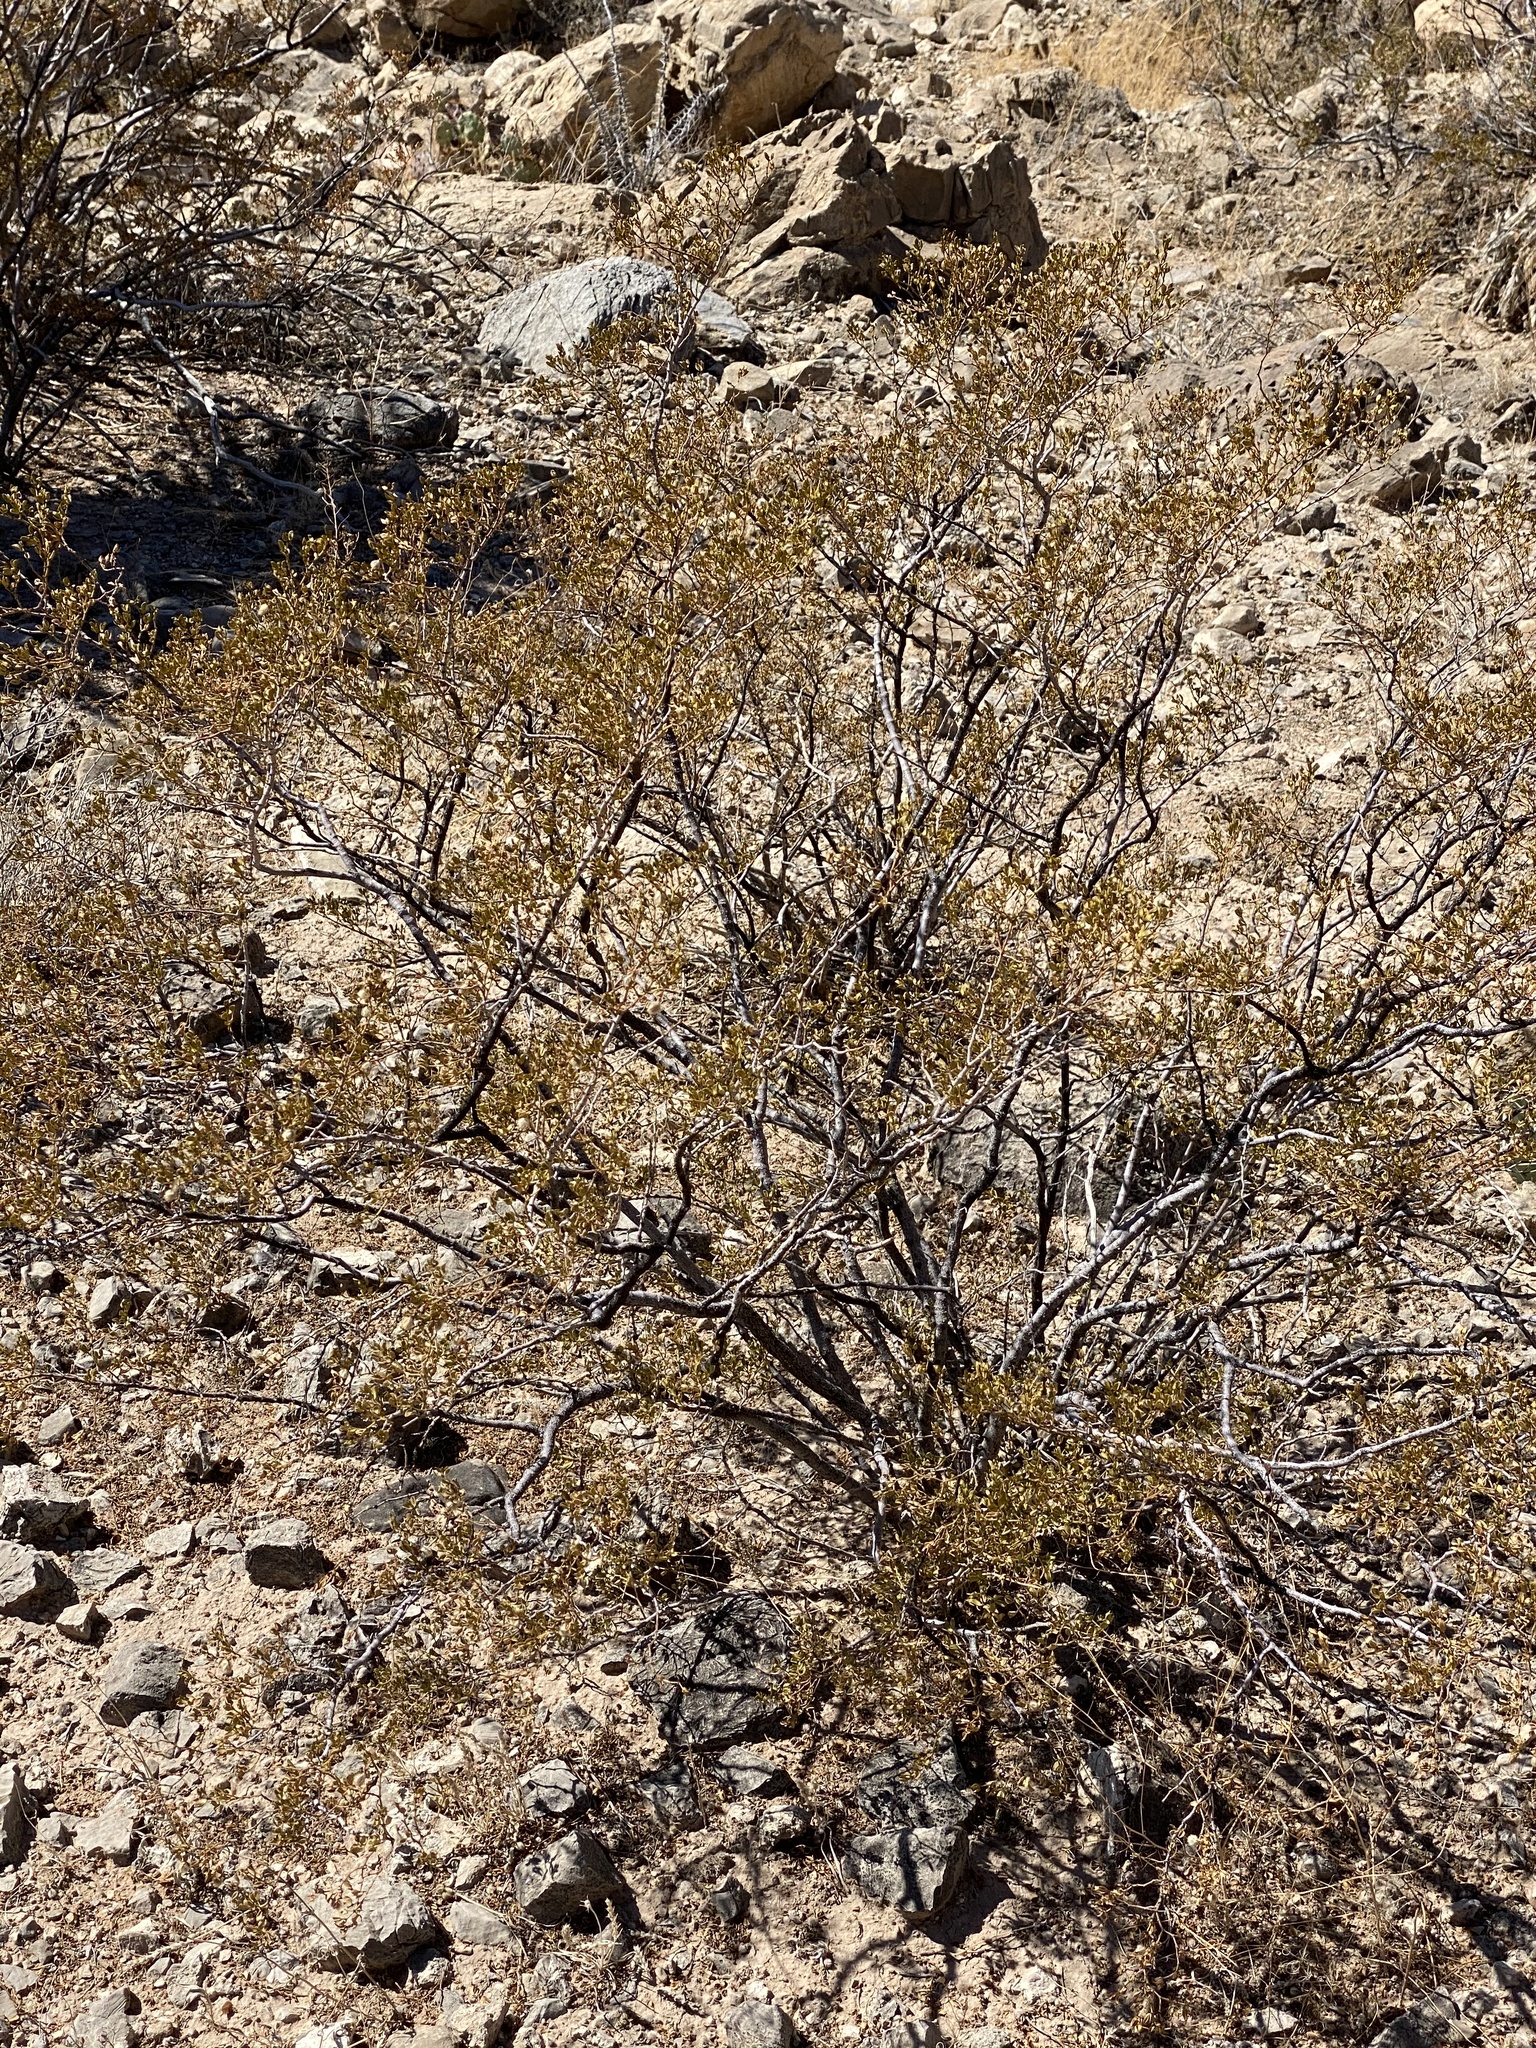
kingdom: Plantae
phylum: Tracheophyta
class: Magnoliopsida
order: Zygophyllales
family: Zygophyllaceae
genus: Larrea
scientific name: Larrea tridentata
